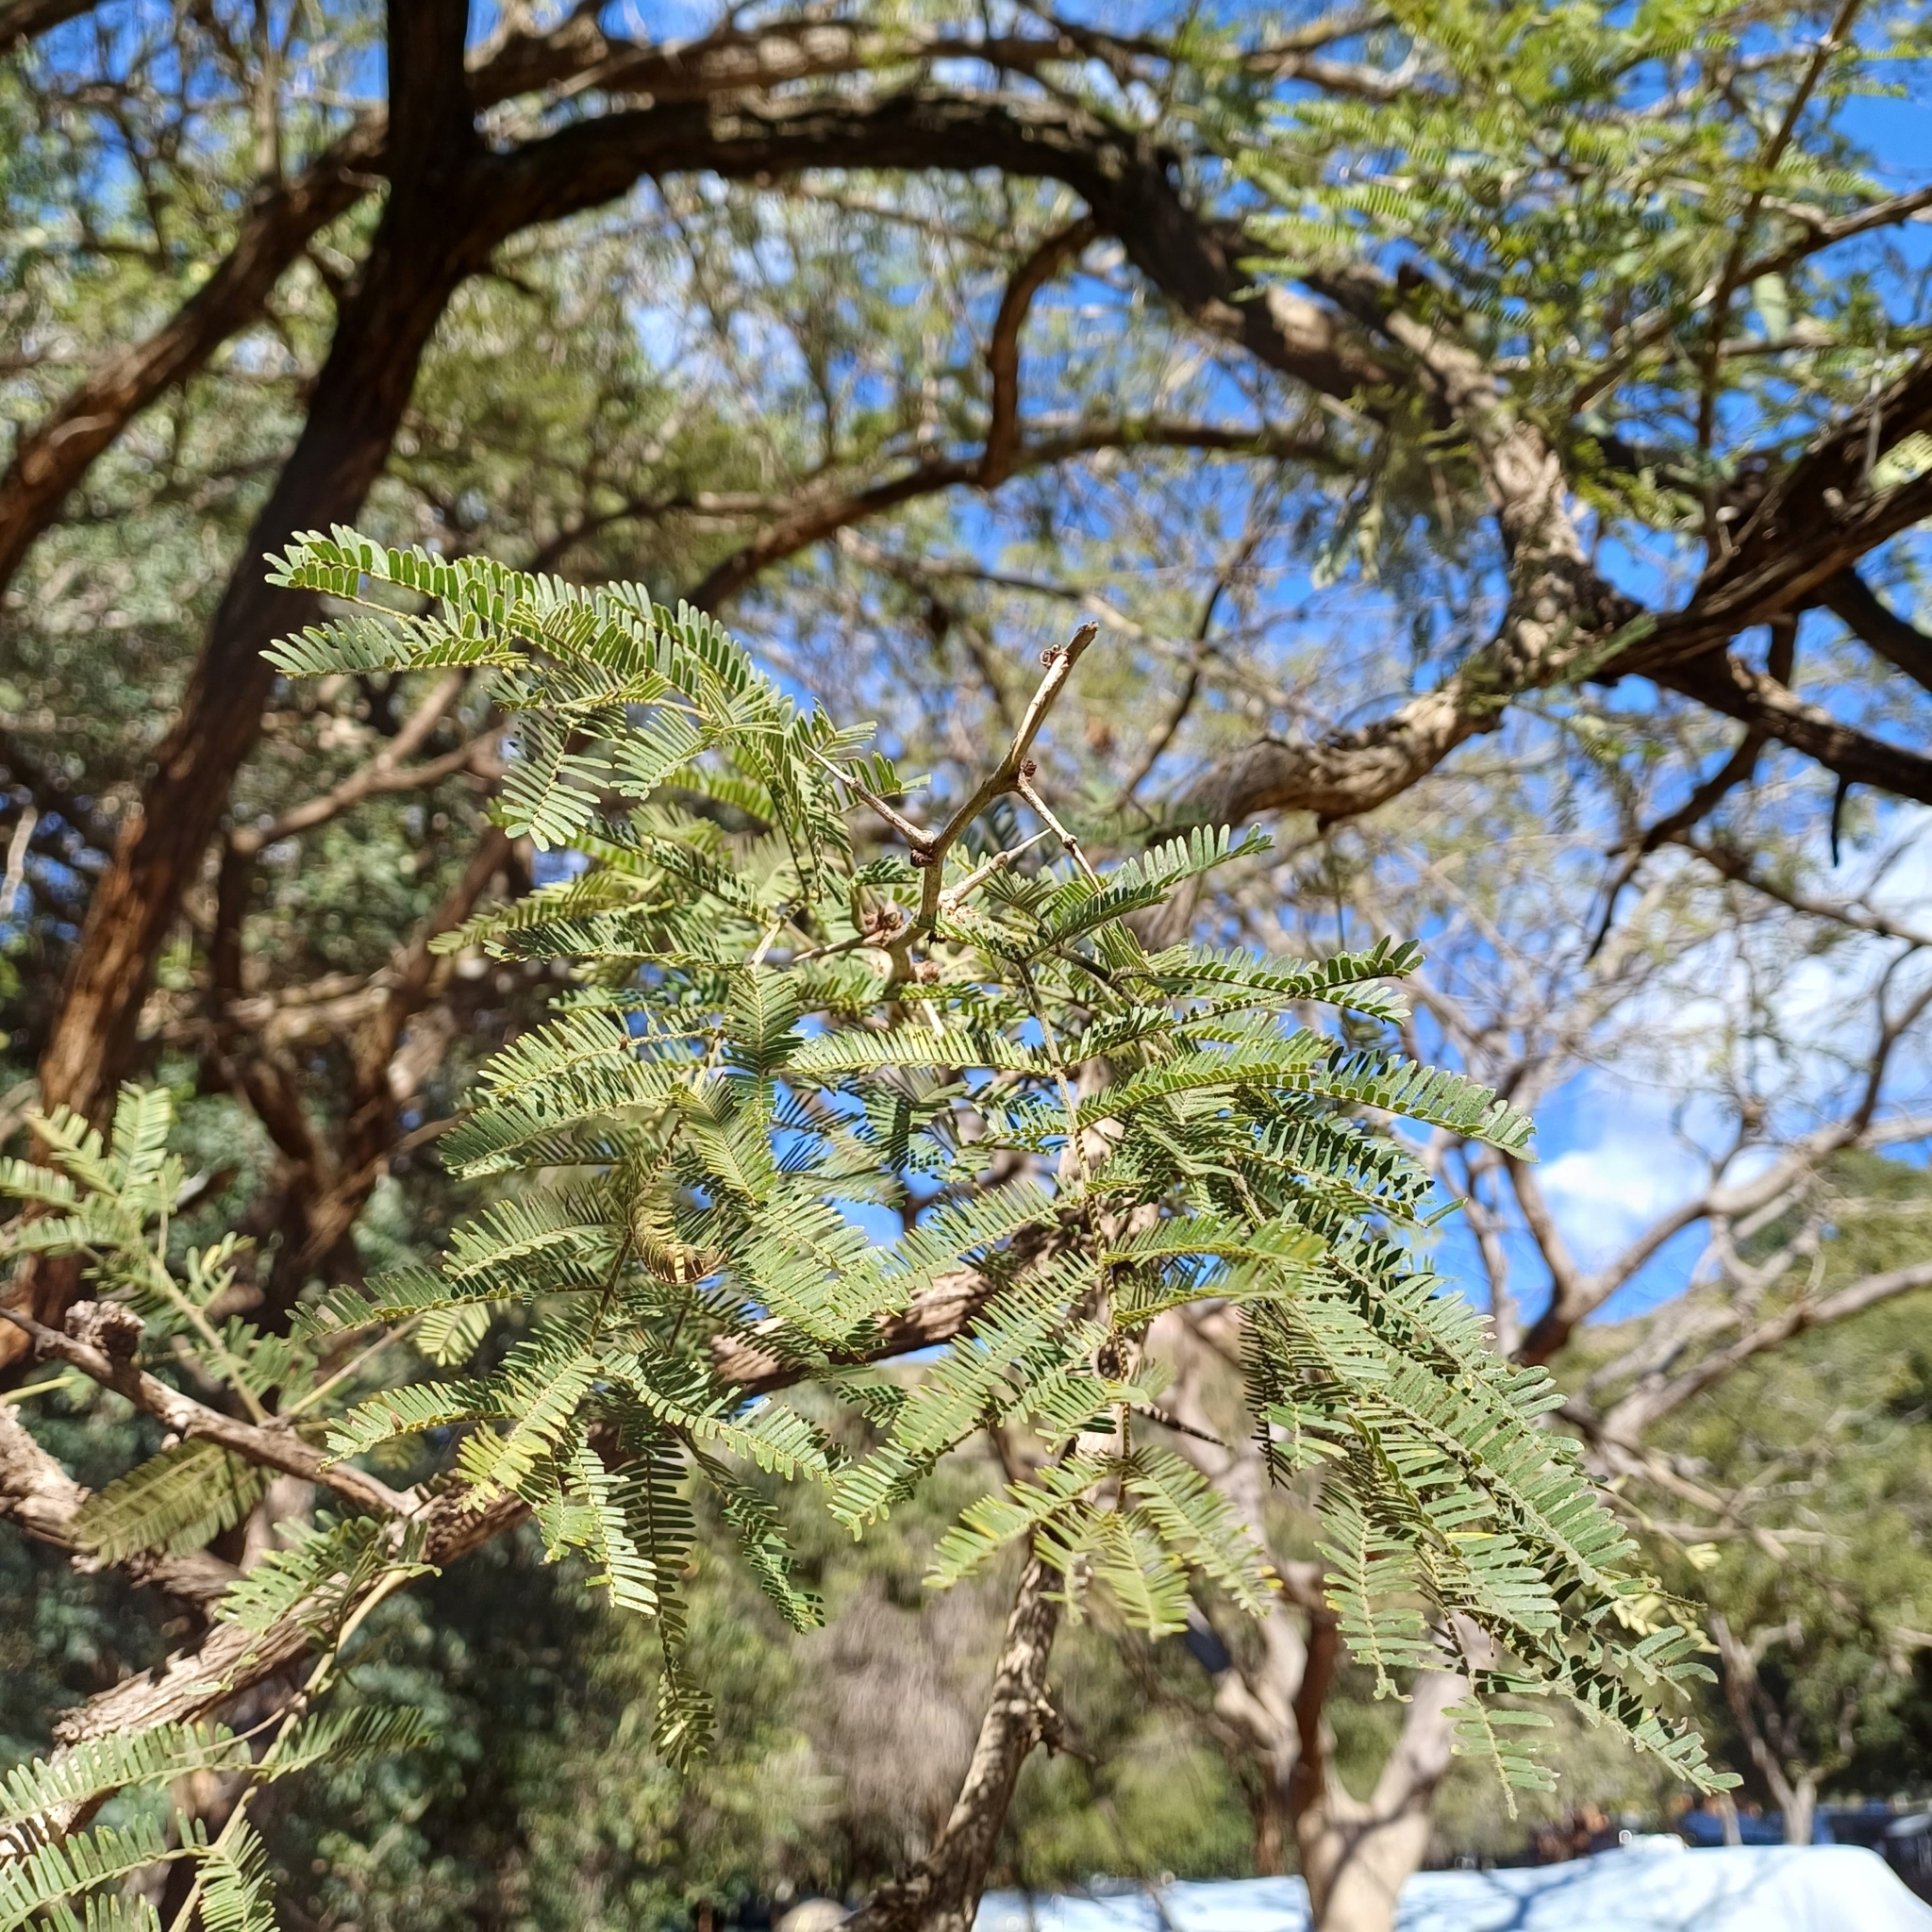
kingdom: Plantae
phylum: Tracheophyta
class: Magnoliopsida
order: Fabales
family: Fabaceae
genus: Dichrostachys
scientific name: Dichrostachys cinerea
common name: Sicklebush
